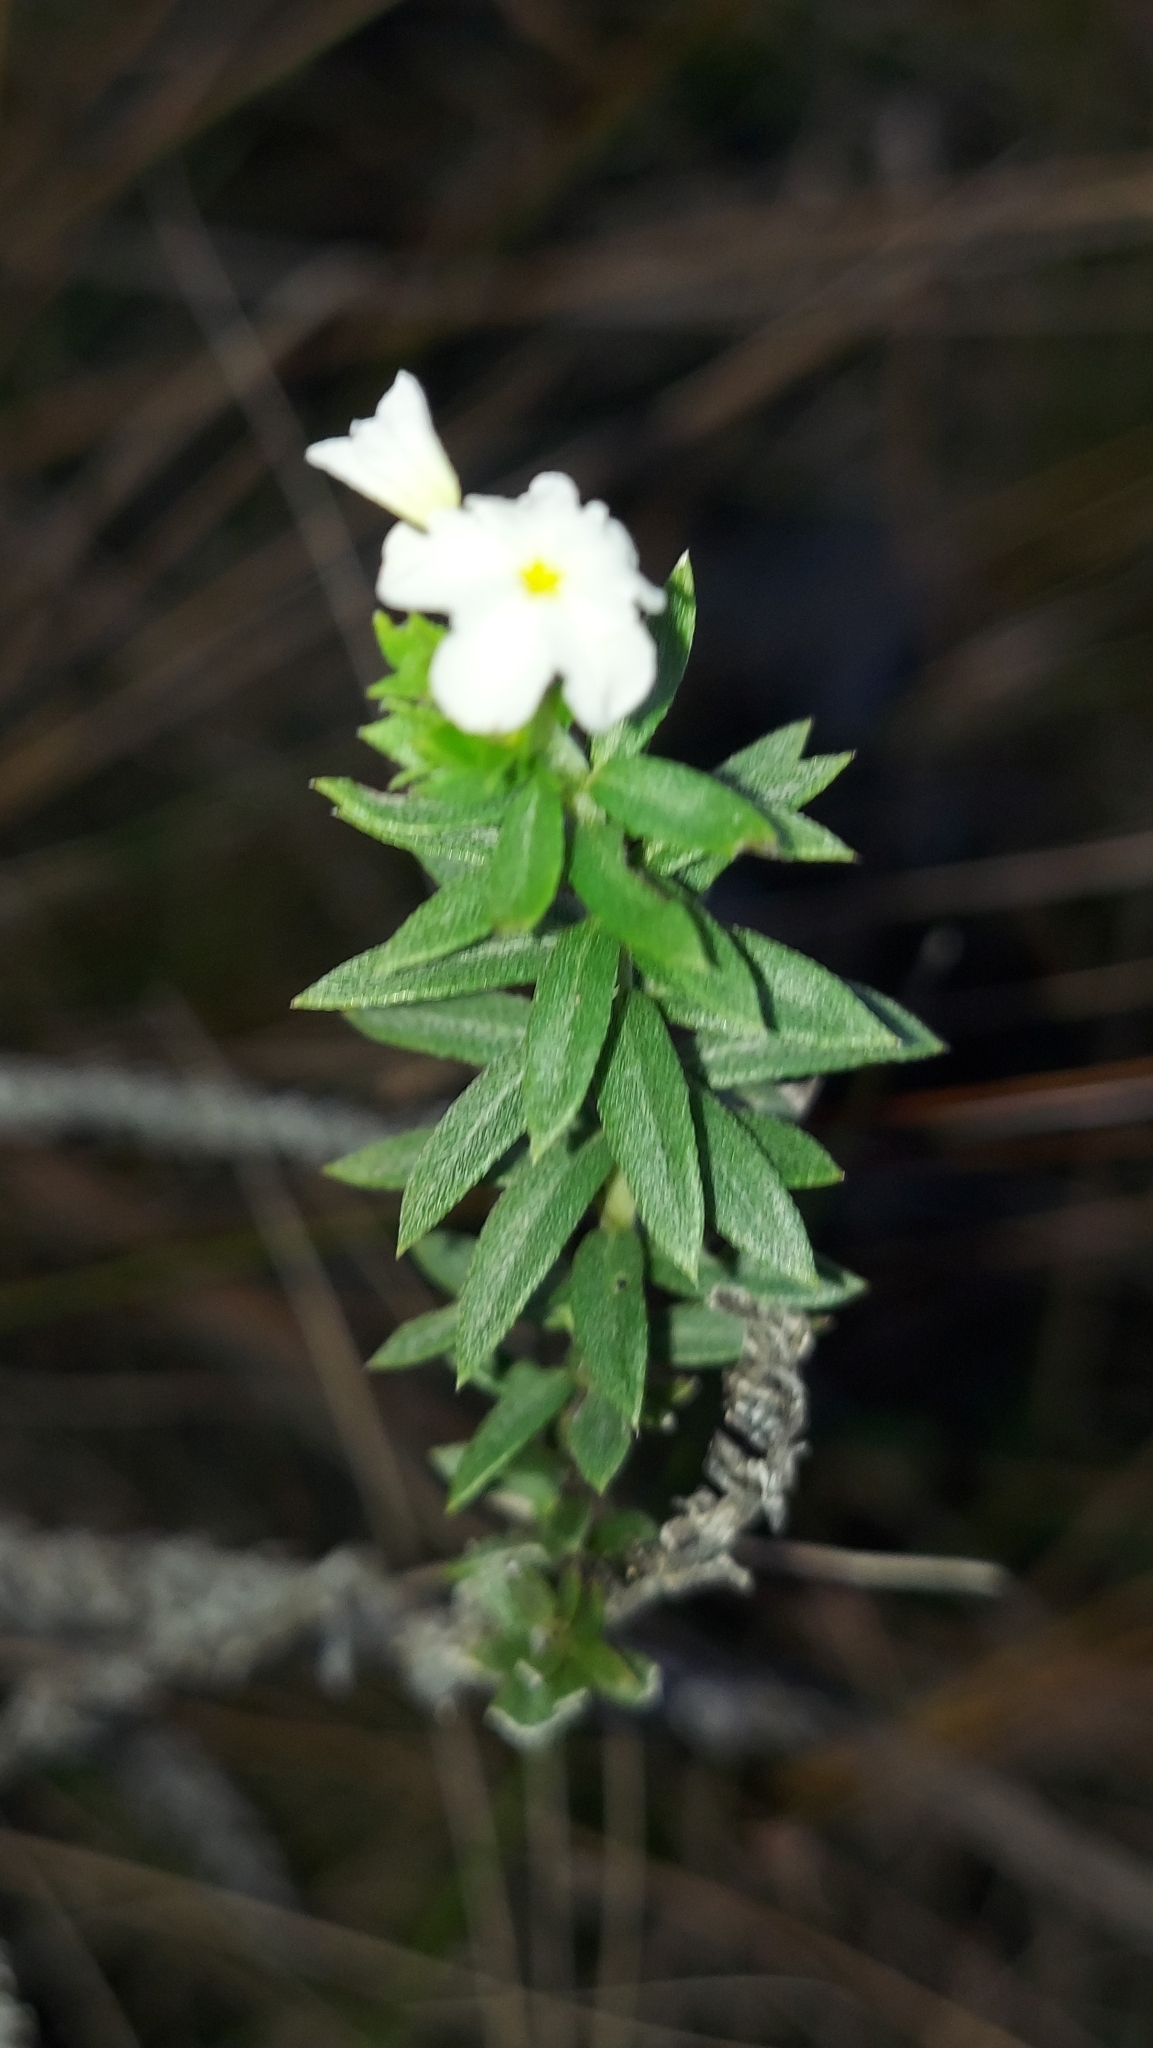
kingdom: Plantae
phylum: Tracheophyta
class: Magnoliopsida
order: Boraginales
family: Heliotropiaceae
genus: Euploca
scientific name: Euploca polyphylla
